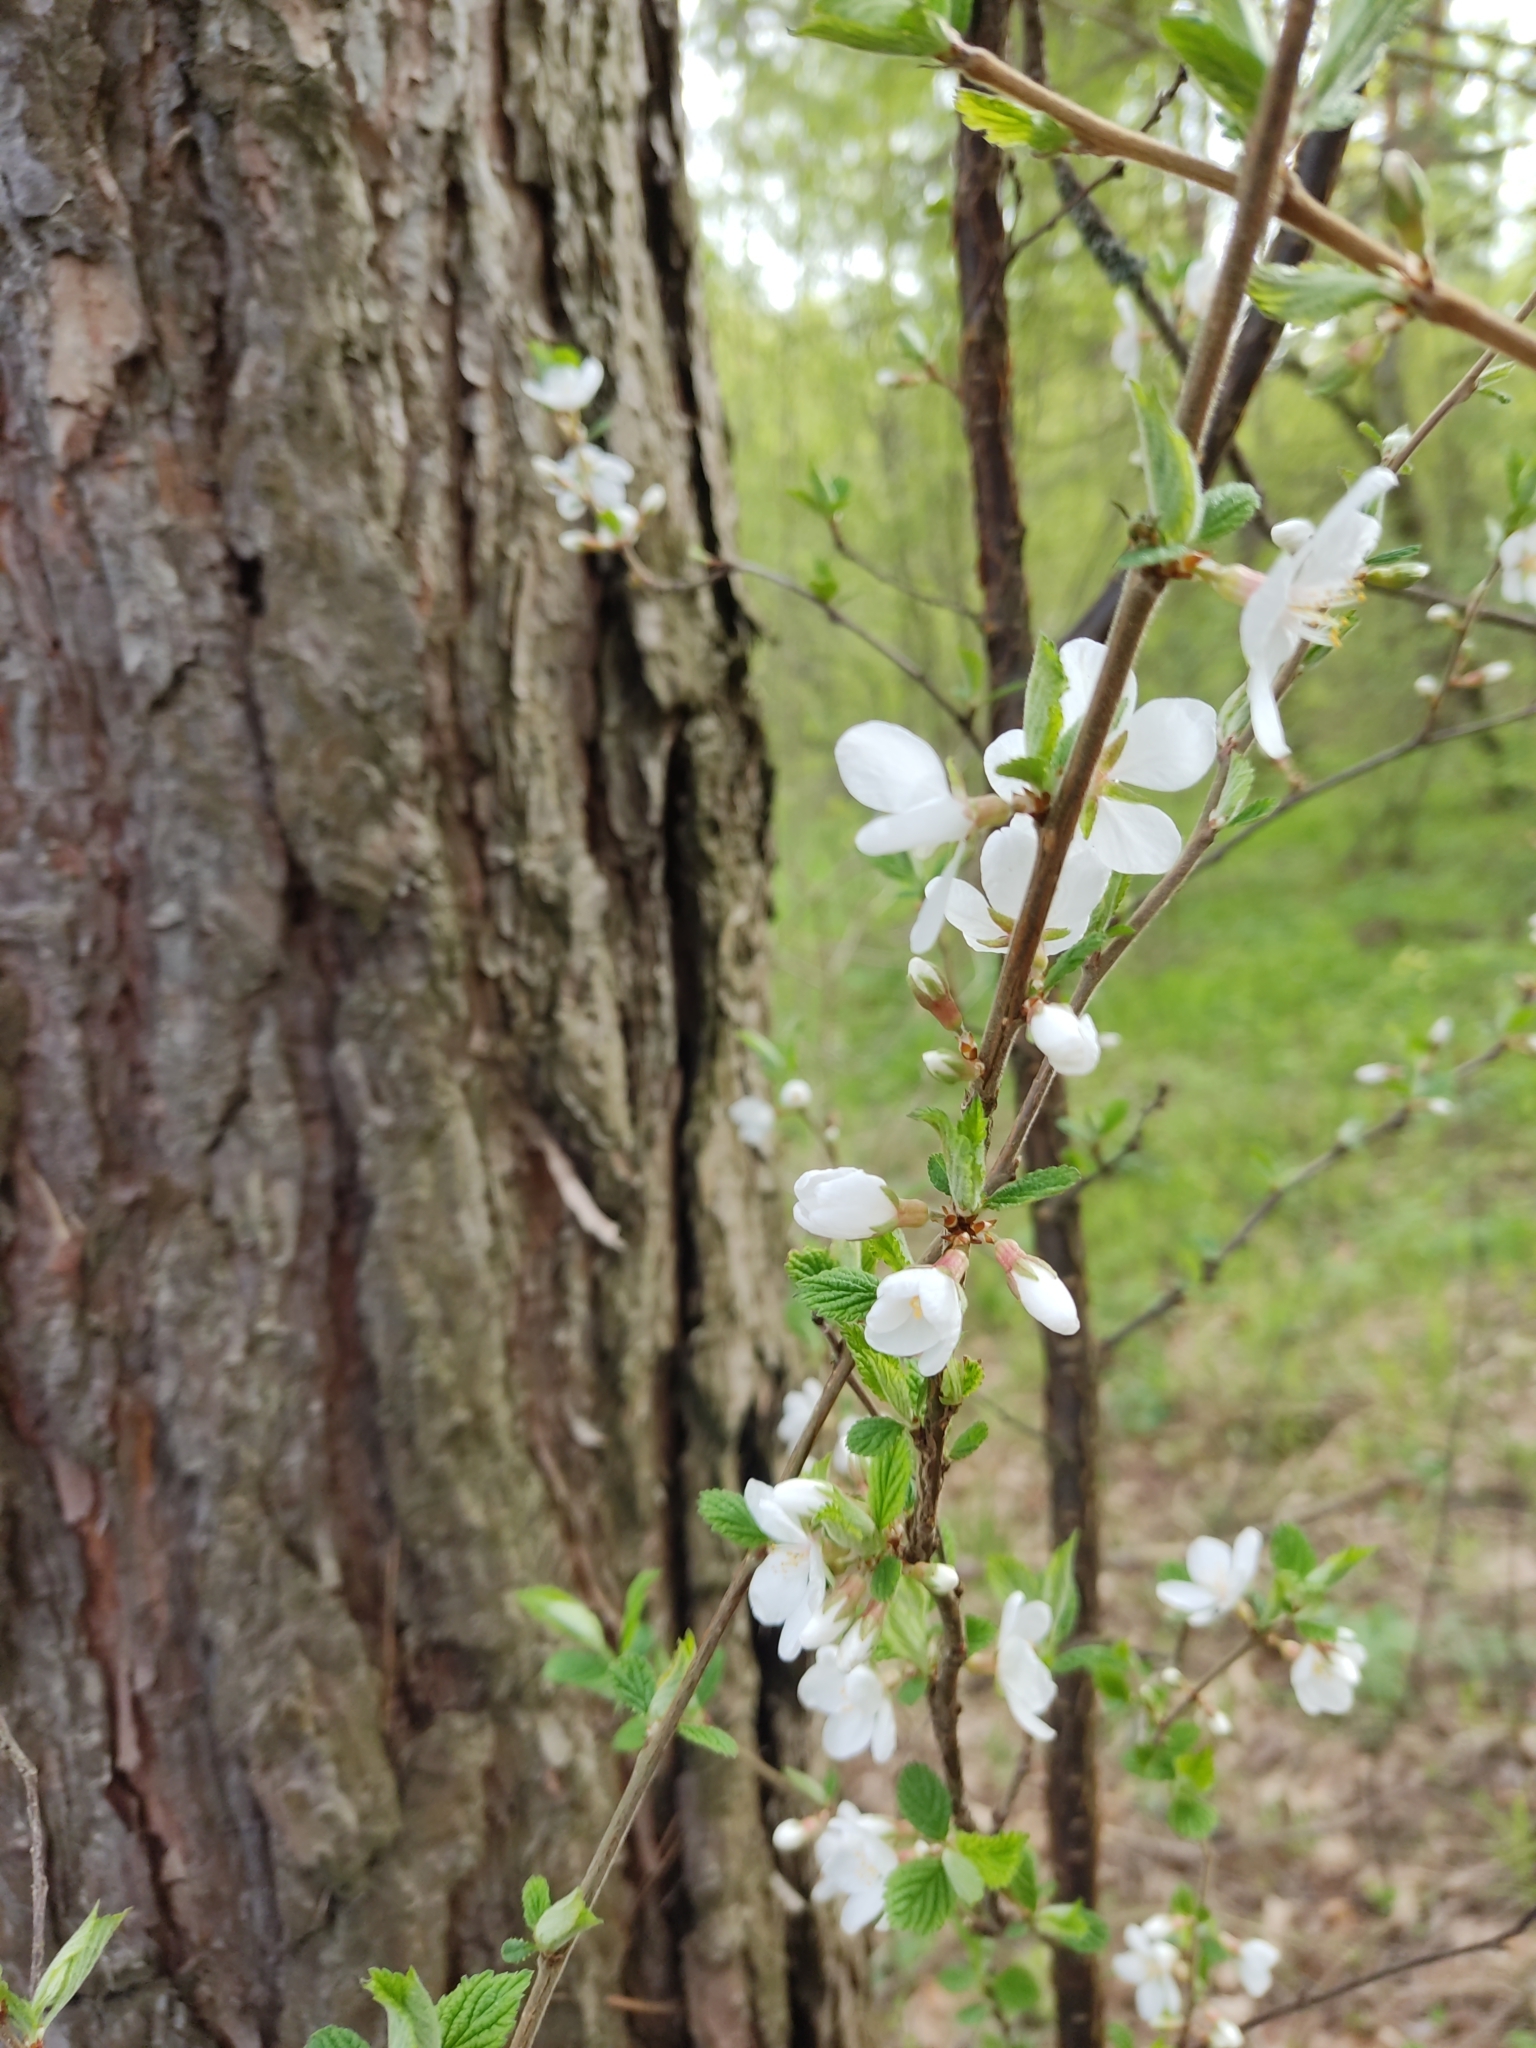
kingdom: Plantae
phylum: Tracheophyta
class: Magnoliopsida
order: Rosales
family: Rosaceae
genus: Prunus
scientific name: Prunus tomentosa
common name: Nanking cherry
